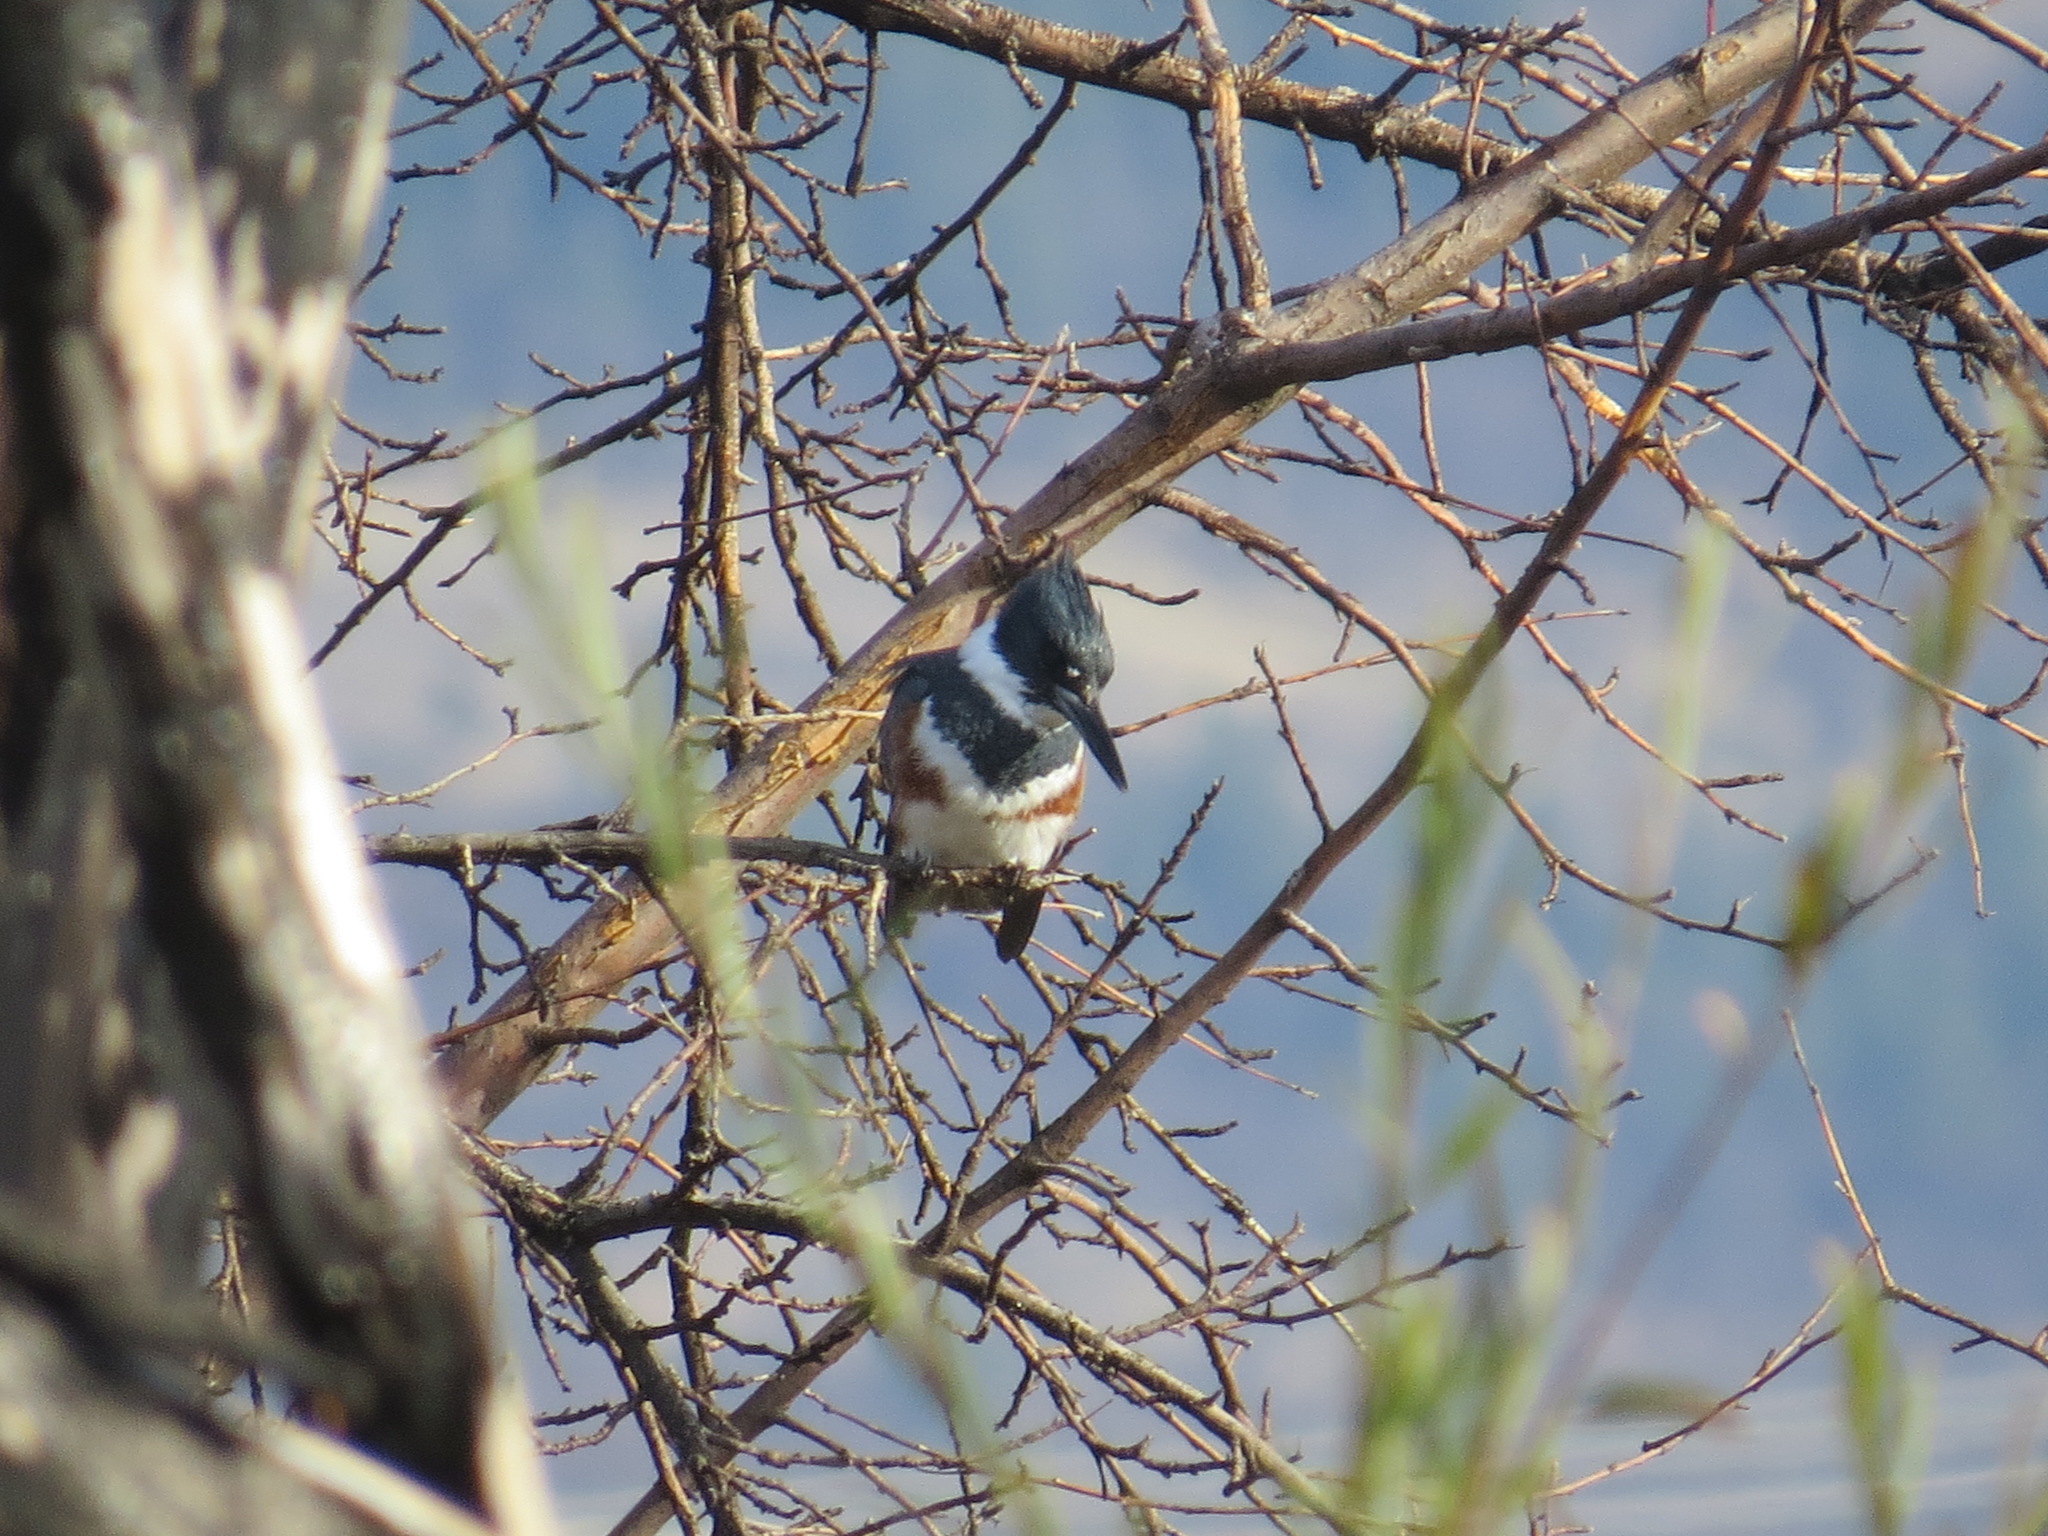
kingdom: Animalia
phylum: Chordata
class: Aves
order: Coraciiformes
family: Alcedinidae
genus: Megaceryle
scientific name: Megaceryle alcyon
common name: Belted kingfisher
